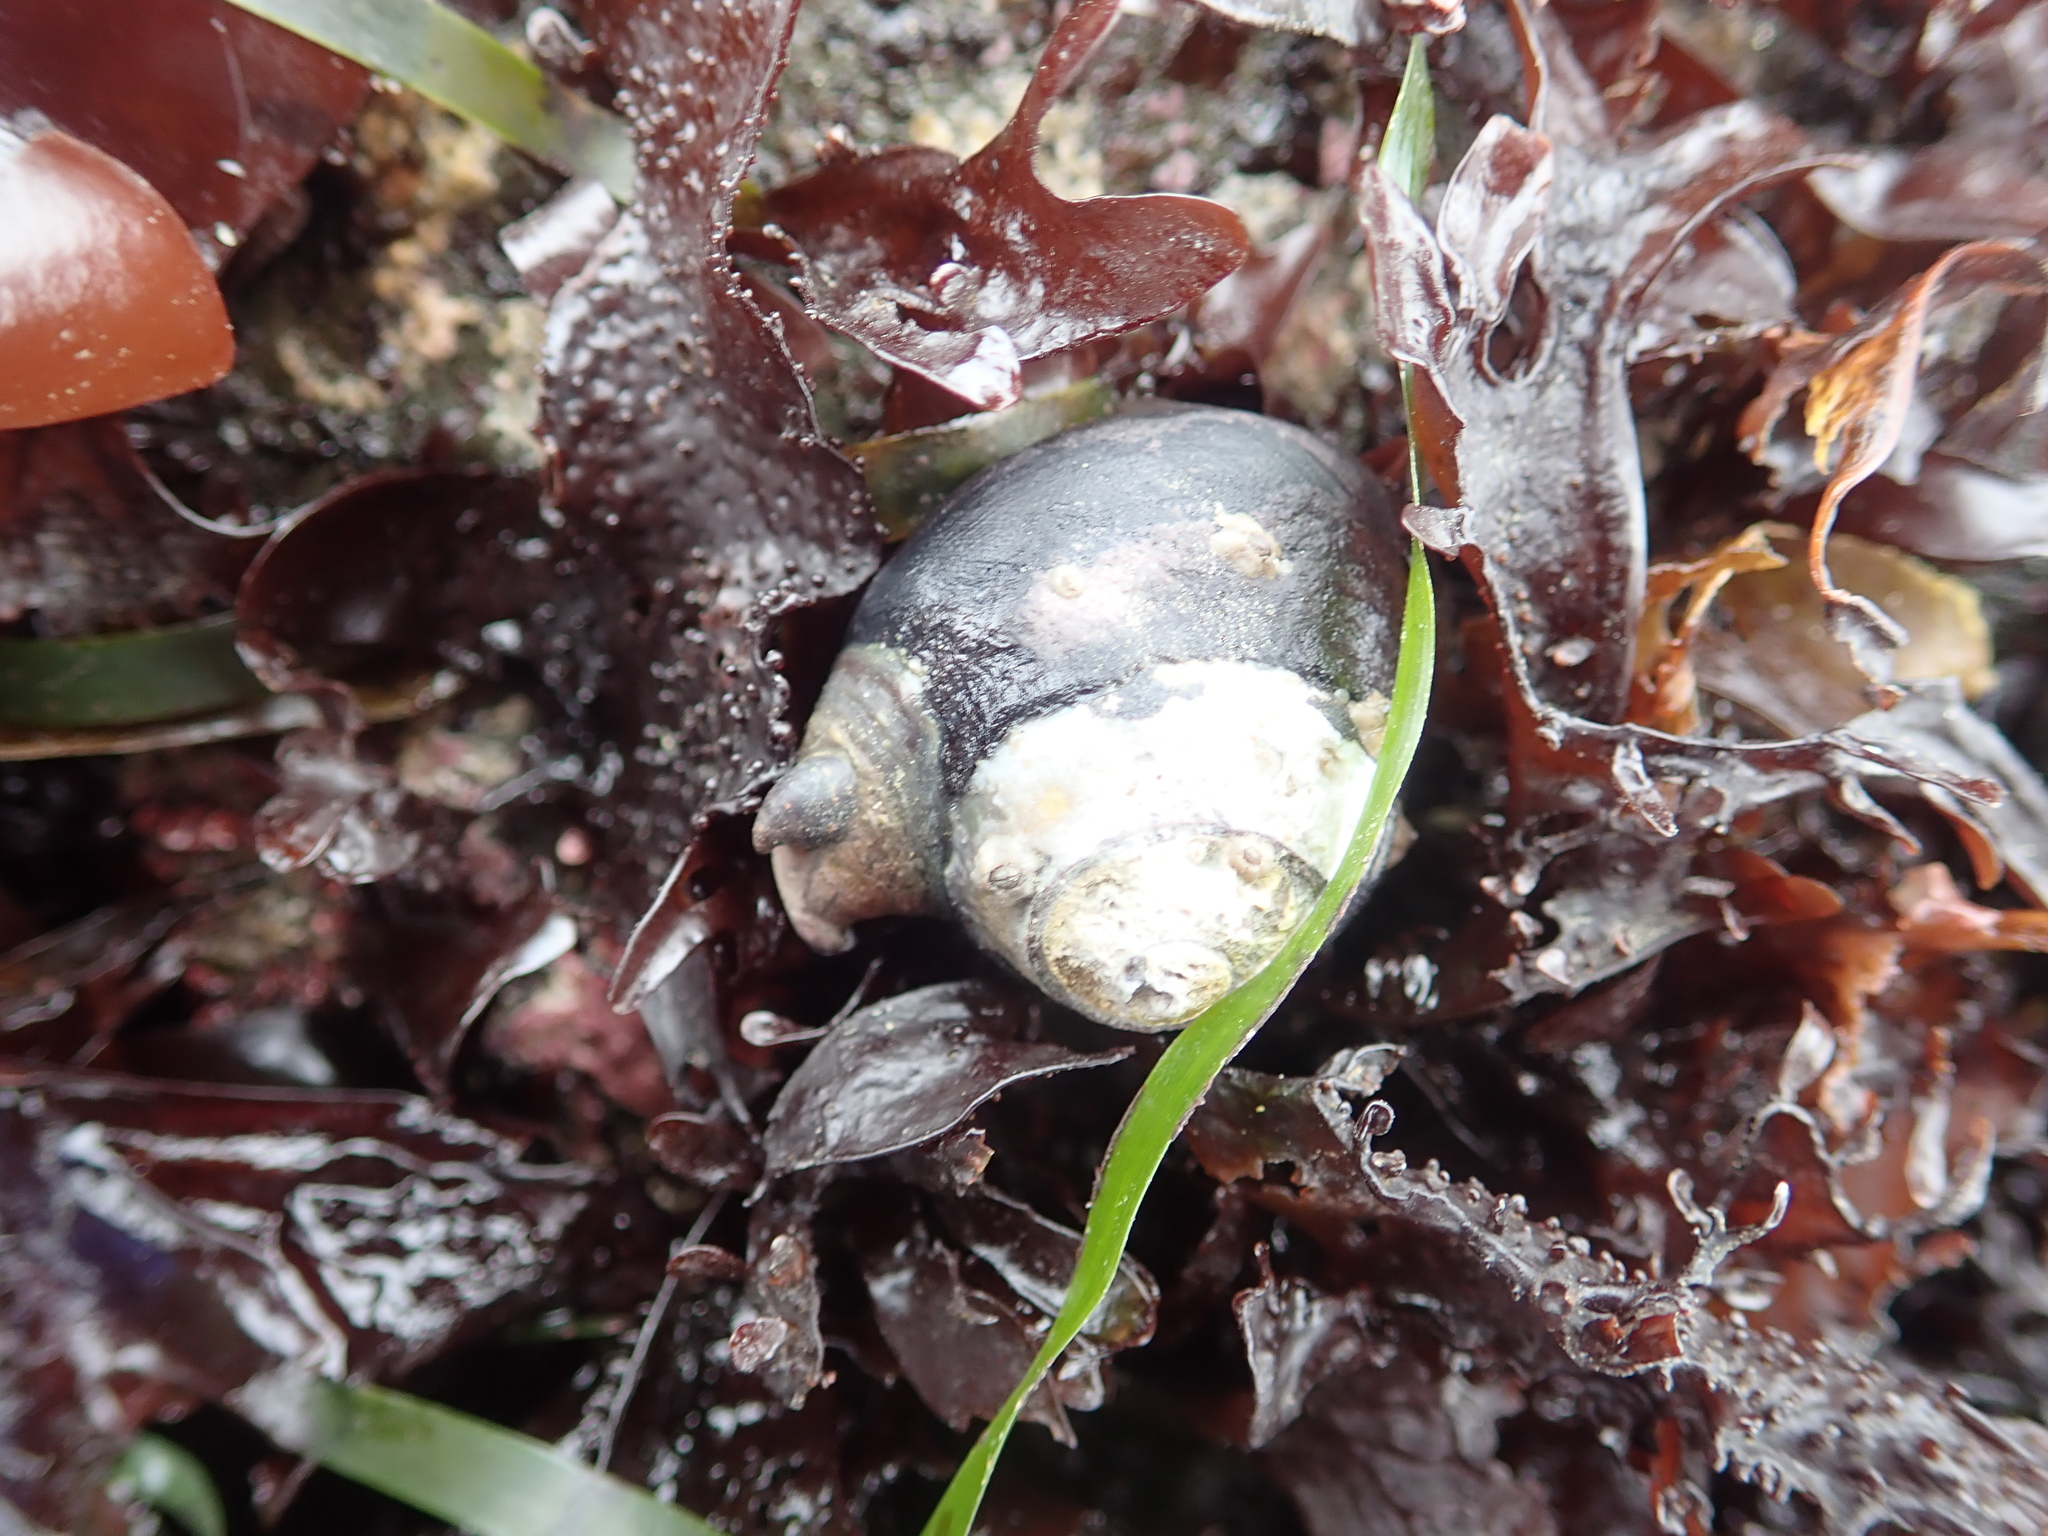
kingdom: Animalia
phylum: Mollusca
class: Gastropoda
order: Trochida
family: Tegulidae
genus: Tegula
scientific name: Tegula funebralis
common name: Black tegula
